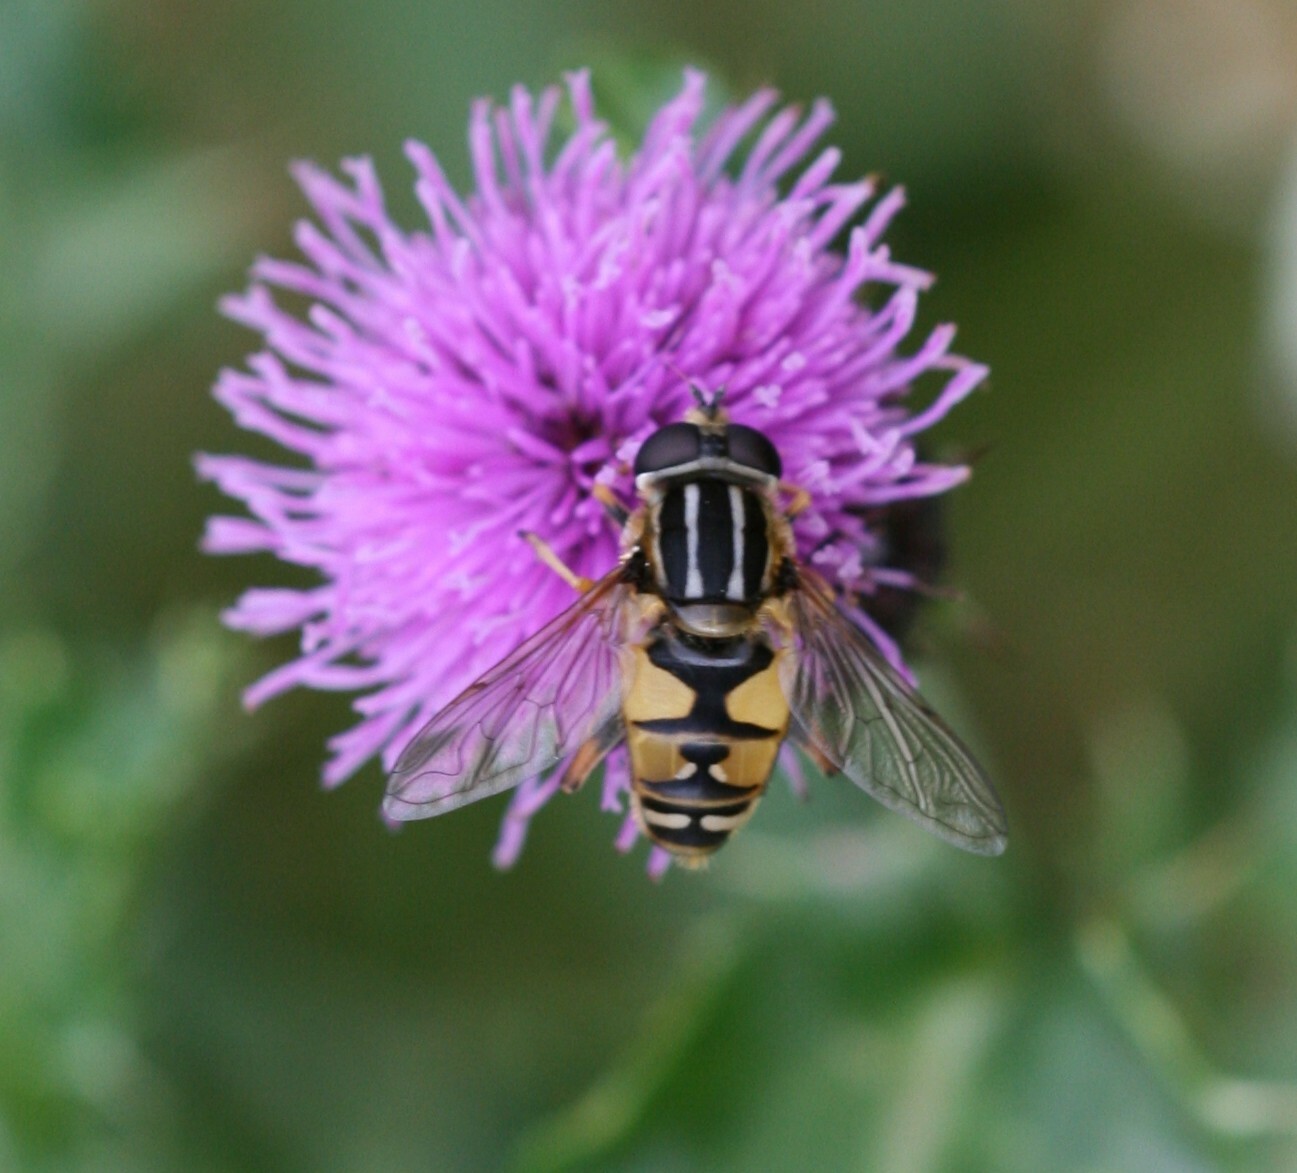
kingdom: Animalia
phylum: Arthropoda
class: Insecta
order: Diptera
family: Syrphidae
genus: Helophilus
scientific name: Helophilus pendulus
